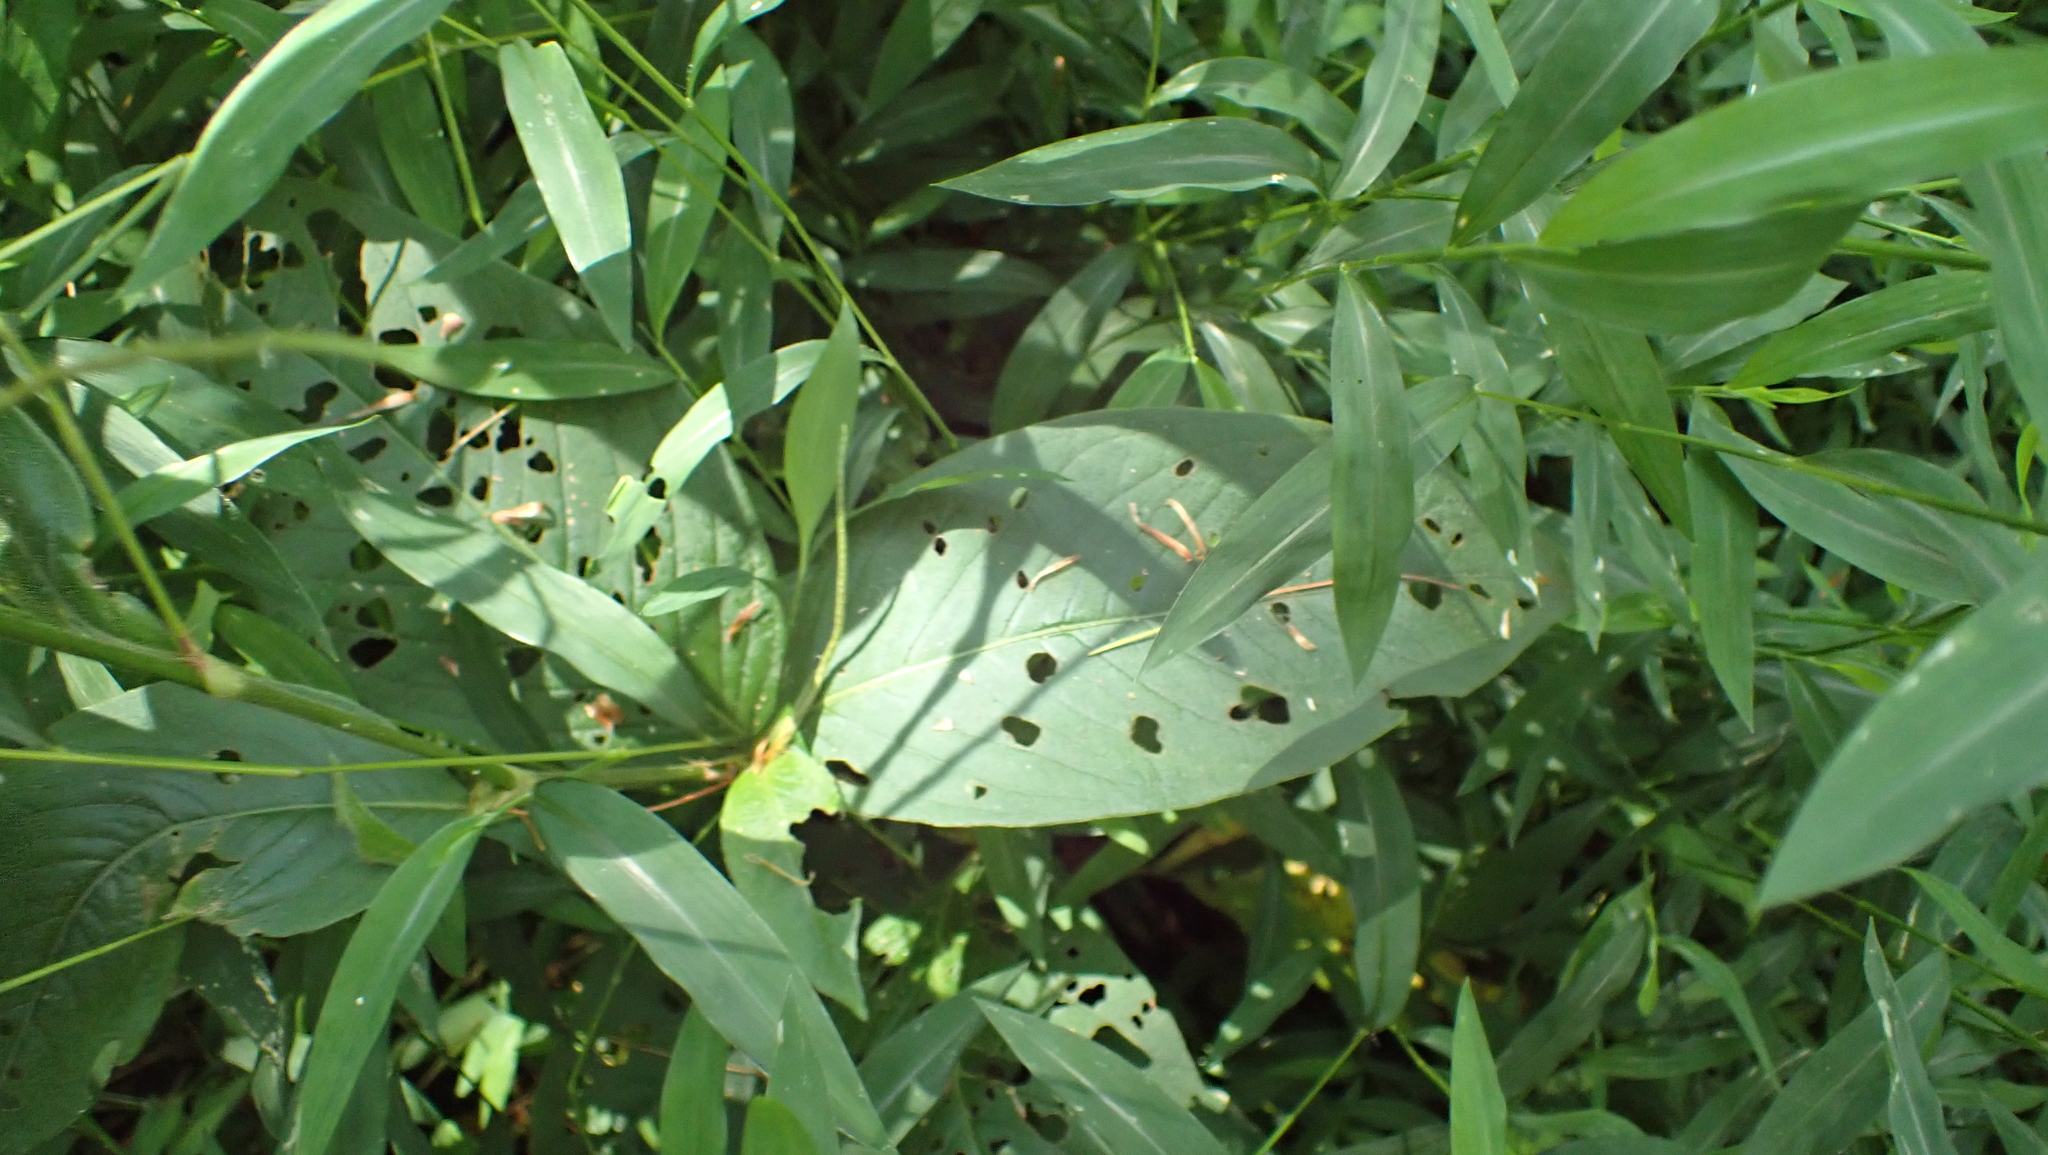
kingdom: Plantae
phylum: Tracheophyta
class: Magnoliopsida
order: Caryophyllales
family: Polygonaceae
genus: Persicaria
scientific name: Persicaria virginiana
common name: Jumpseed
